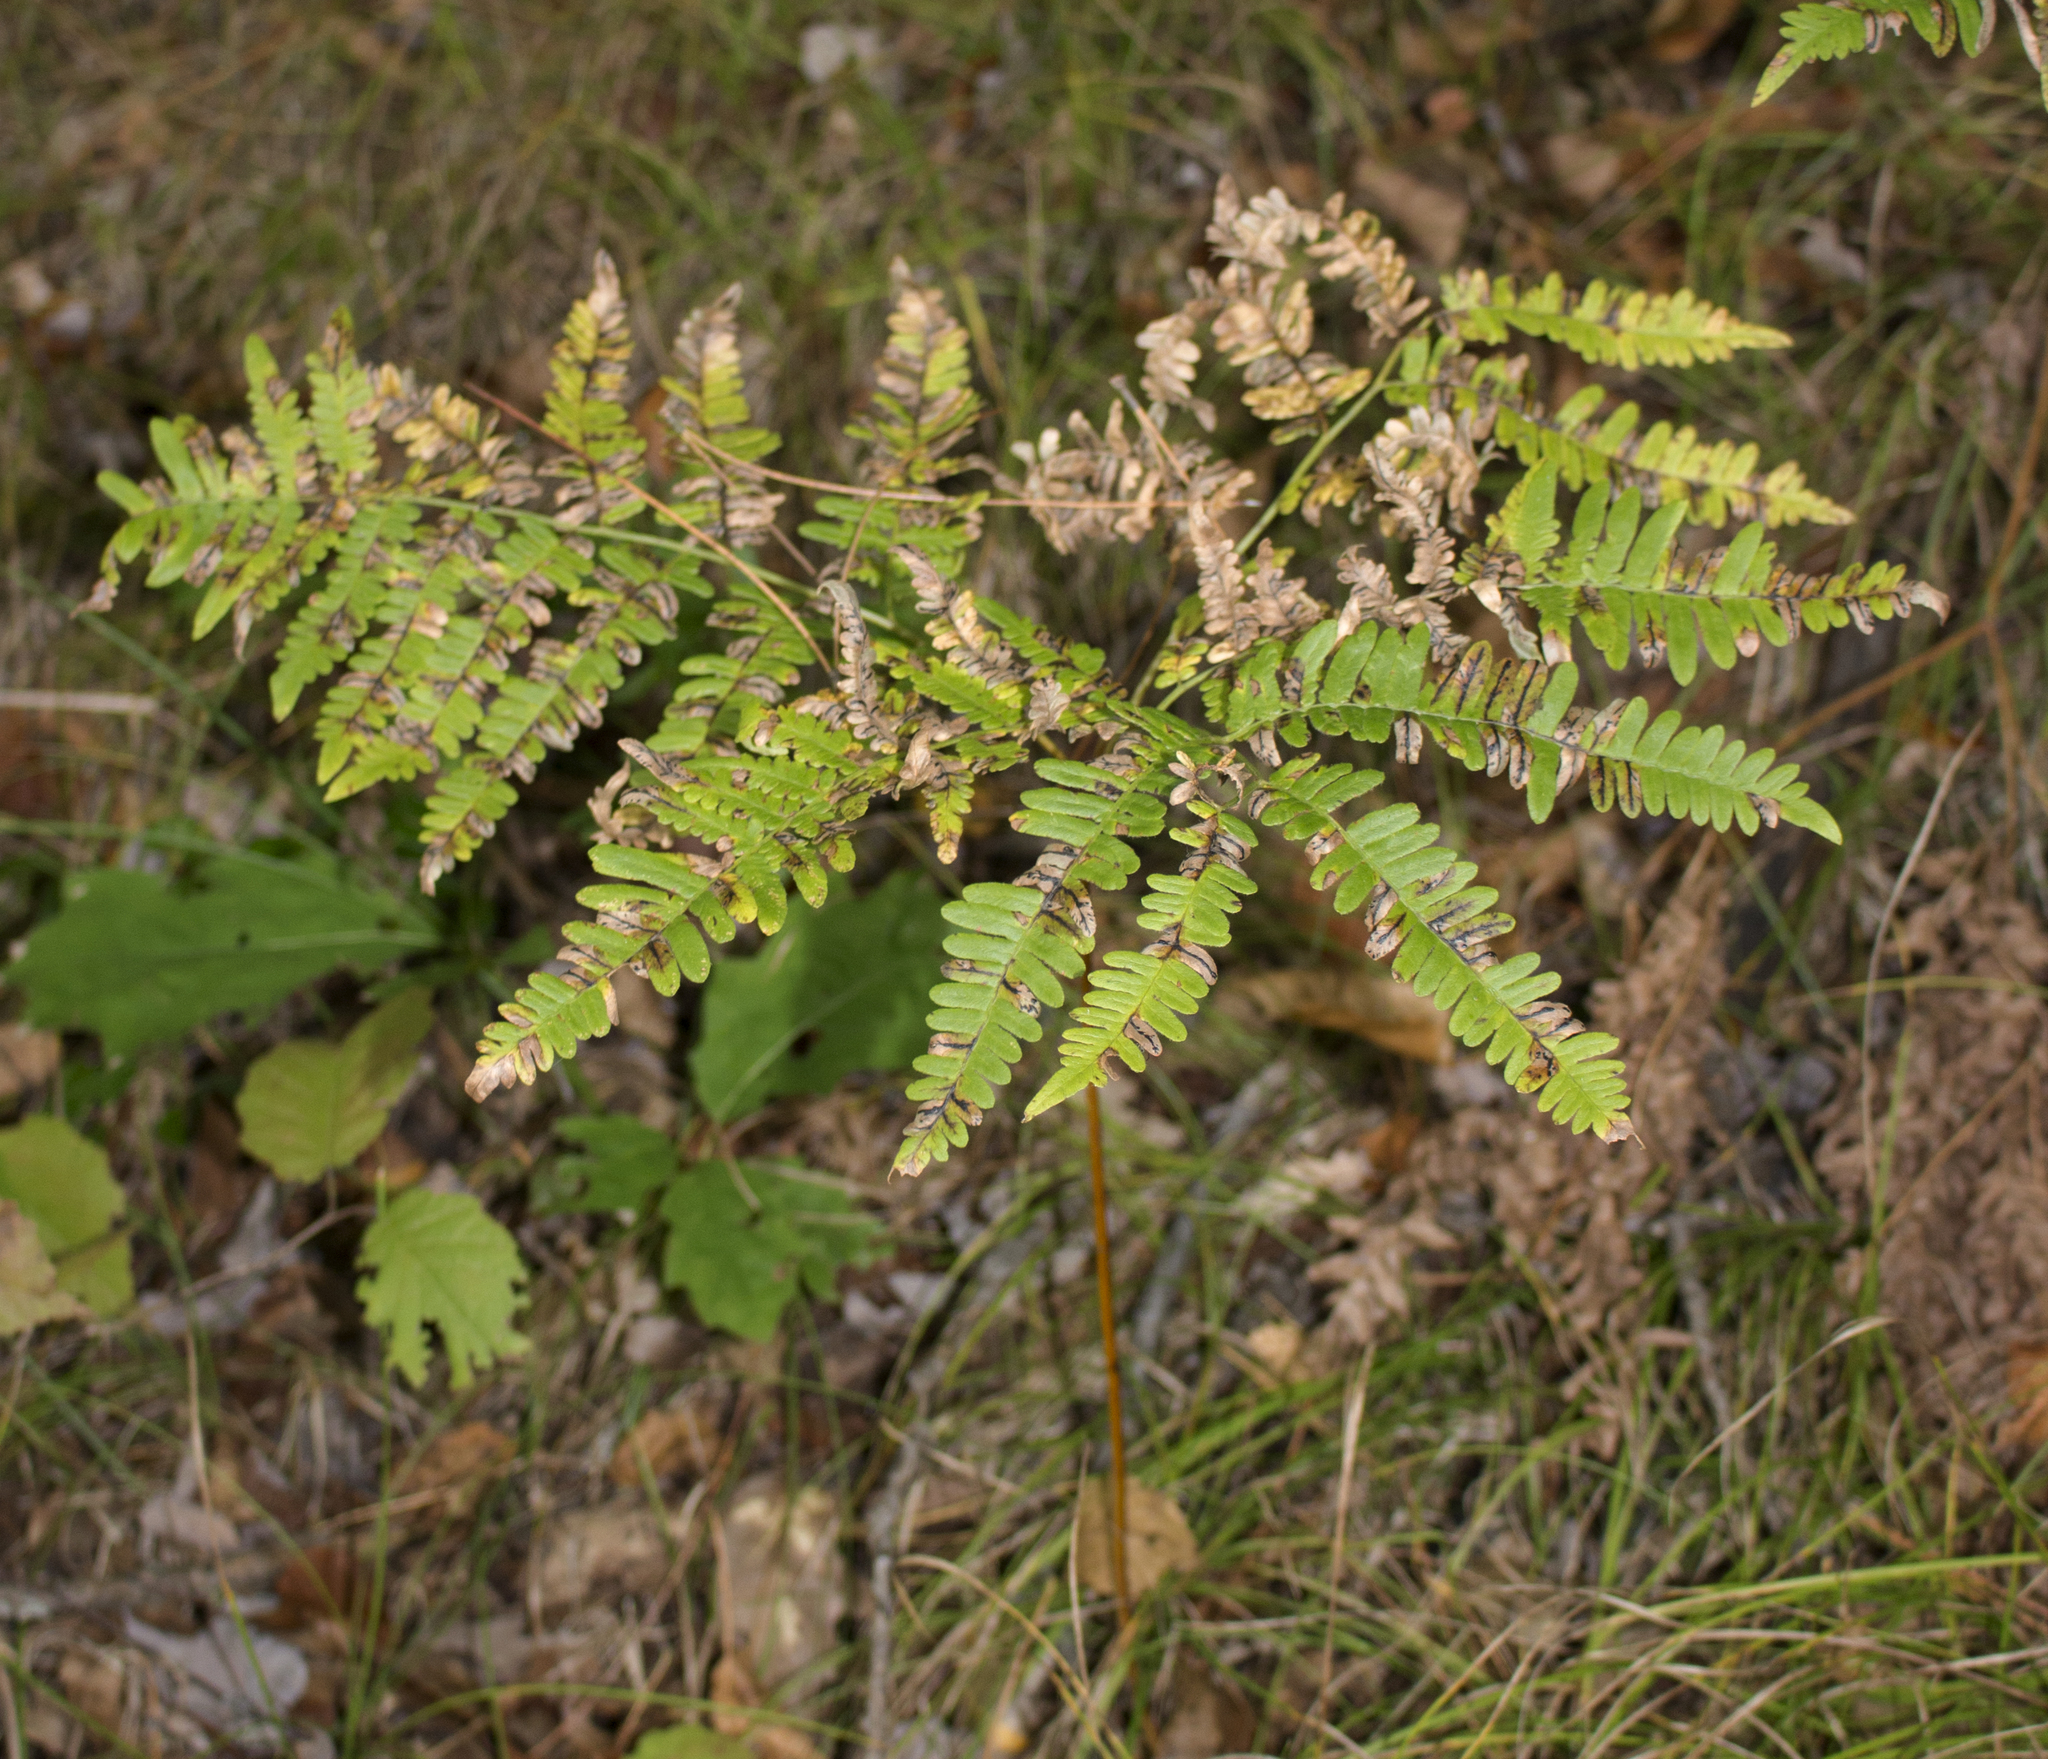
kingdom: Plantae
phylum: Tracheophyta
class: Polypodiopsida
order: Polypodiales
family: Dennstaedtiaceae
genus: Pteridium
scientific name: Pteridium aquilinum
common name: Bracken
